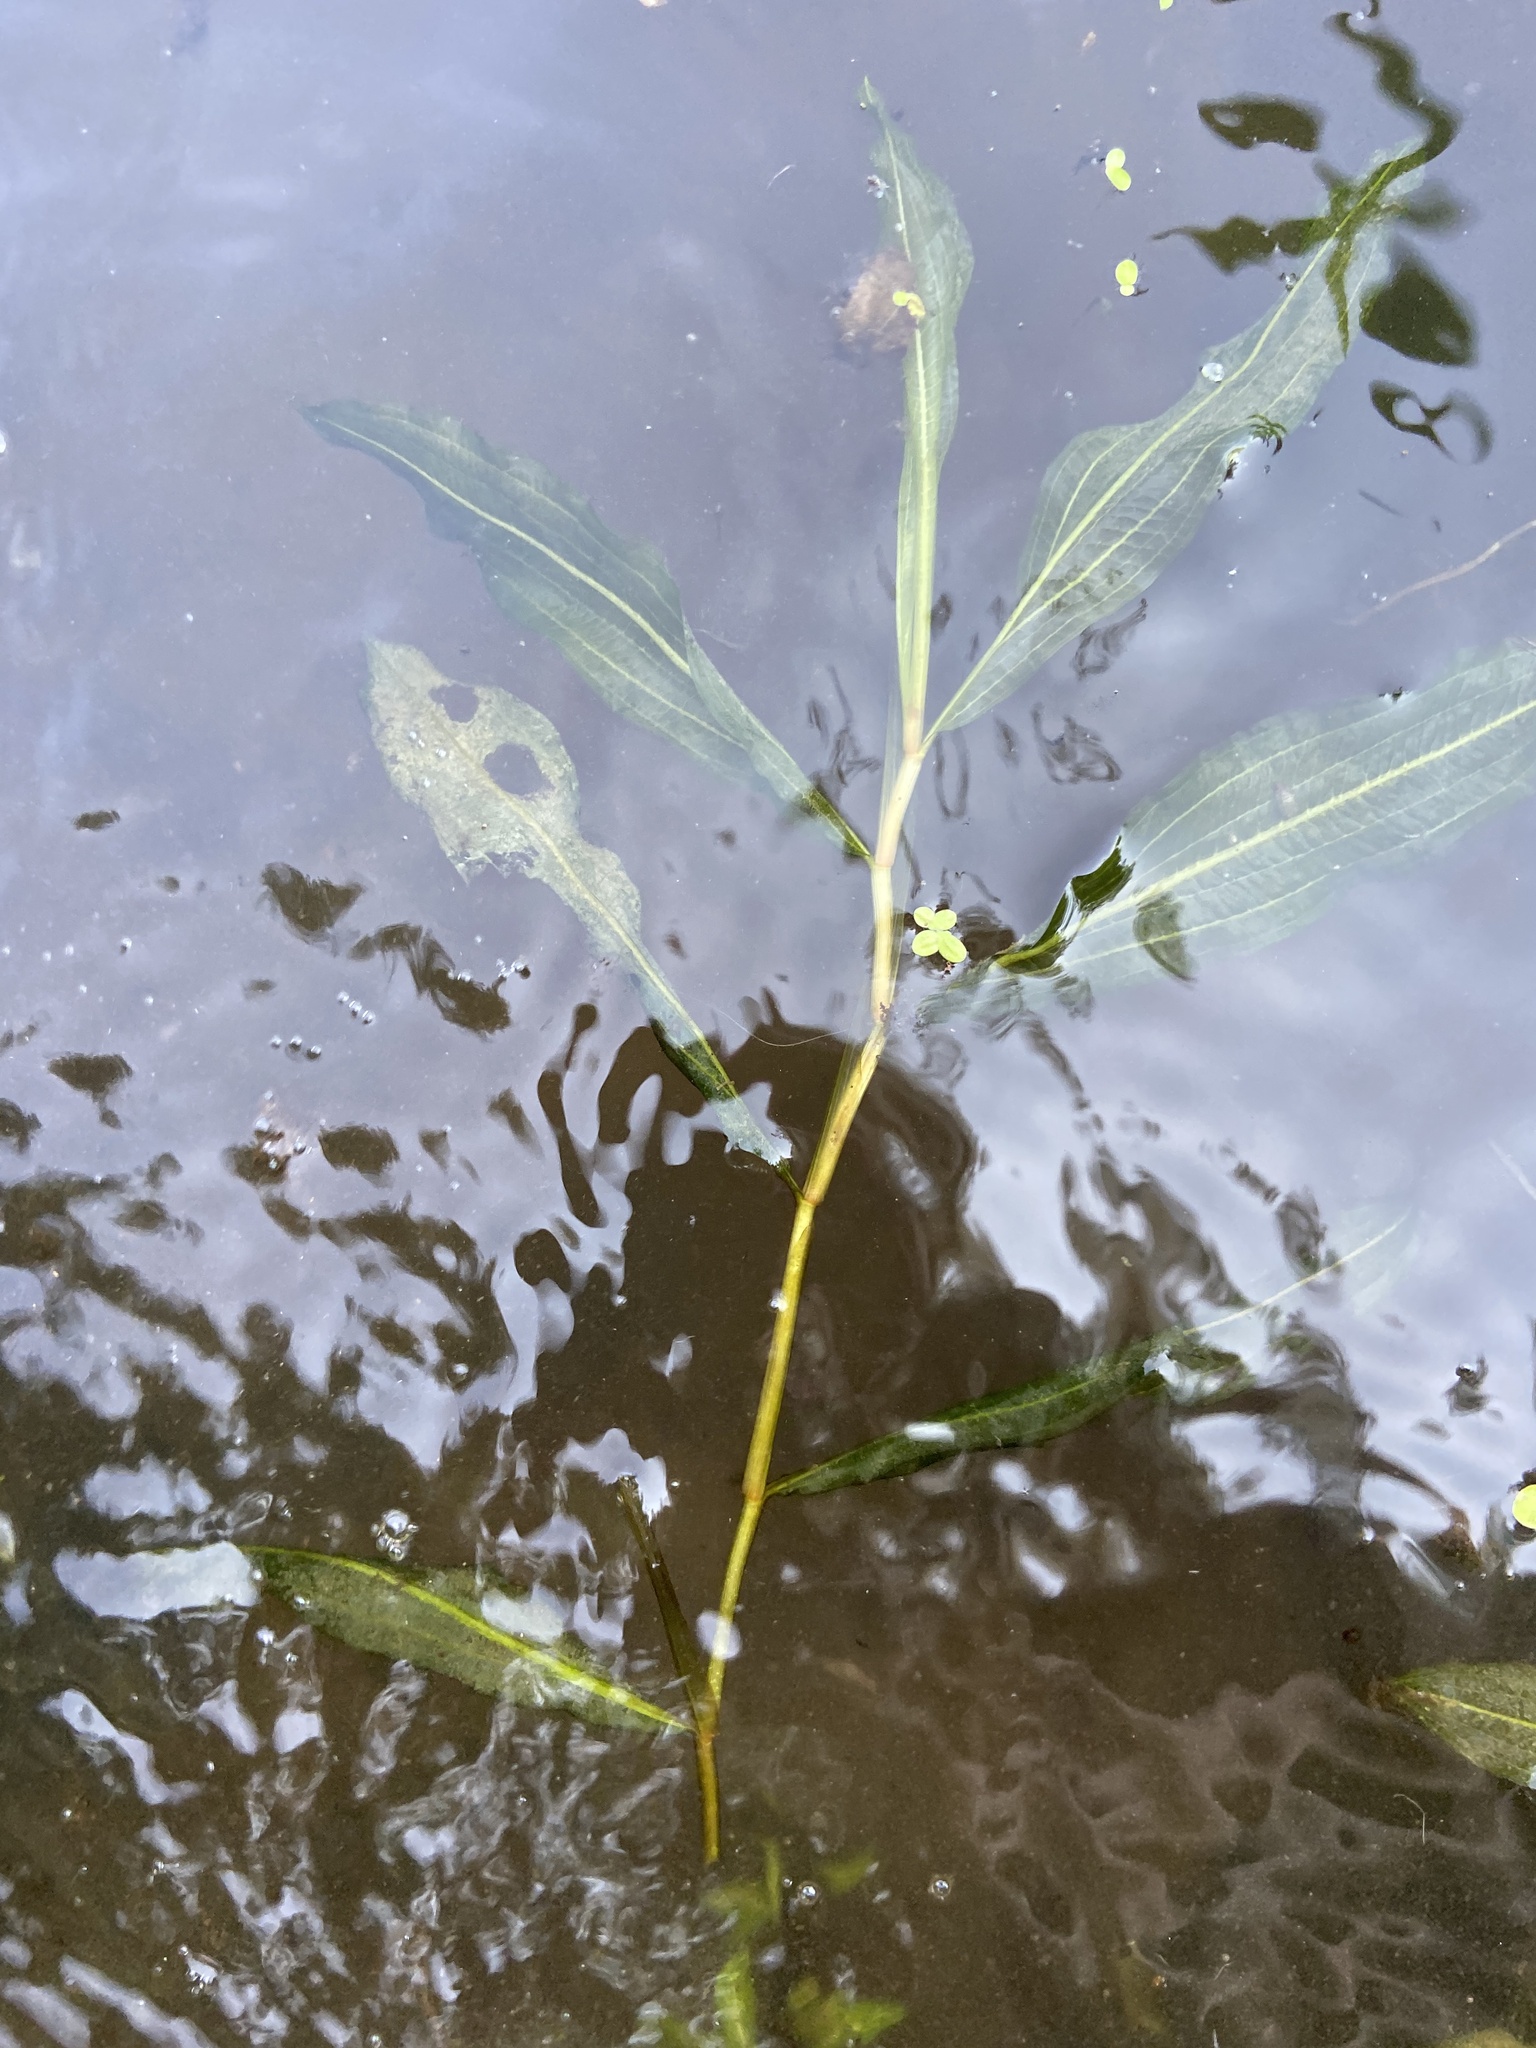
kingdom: Plantae
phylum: Tracheophyta
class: Liliopsida
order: Alismatales
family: Potamogetonaceae
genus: Potamogeton
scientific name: Potamogeton lucens
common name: Shining pondweed
